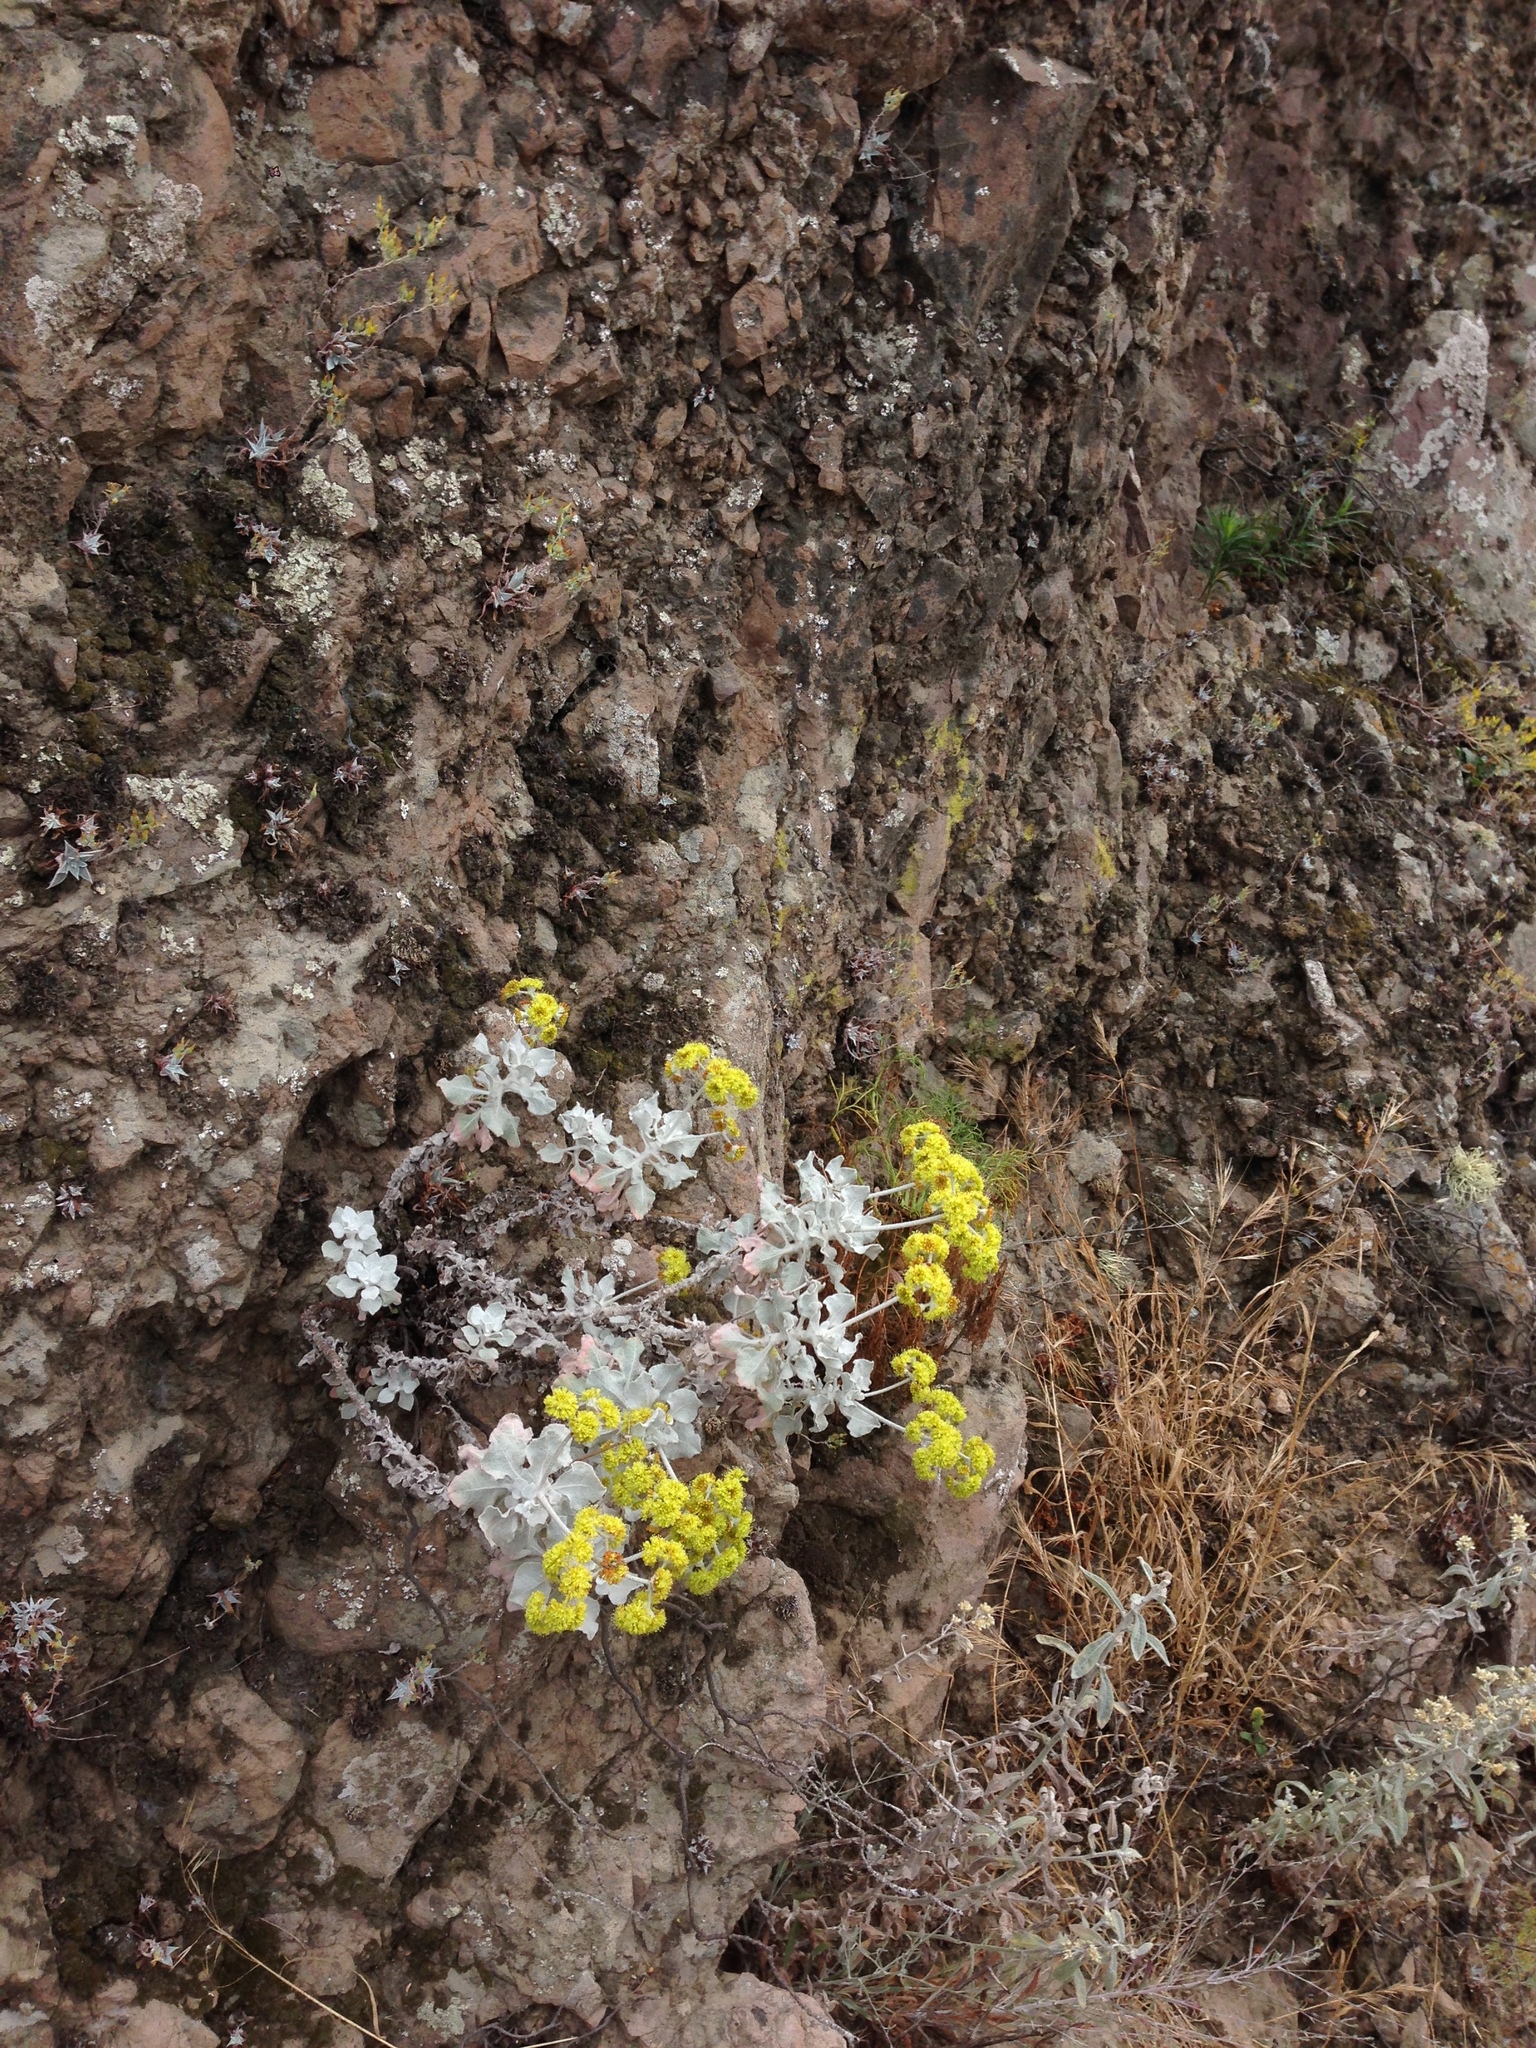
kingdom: Plantae
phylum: Tracheophyta
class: Magnoliopsida
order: Caryophyllales
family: Polygonaceae
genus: Eriogonum
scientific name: Eriogonum crocatum
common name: Saffron wild buckwheat
